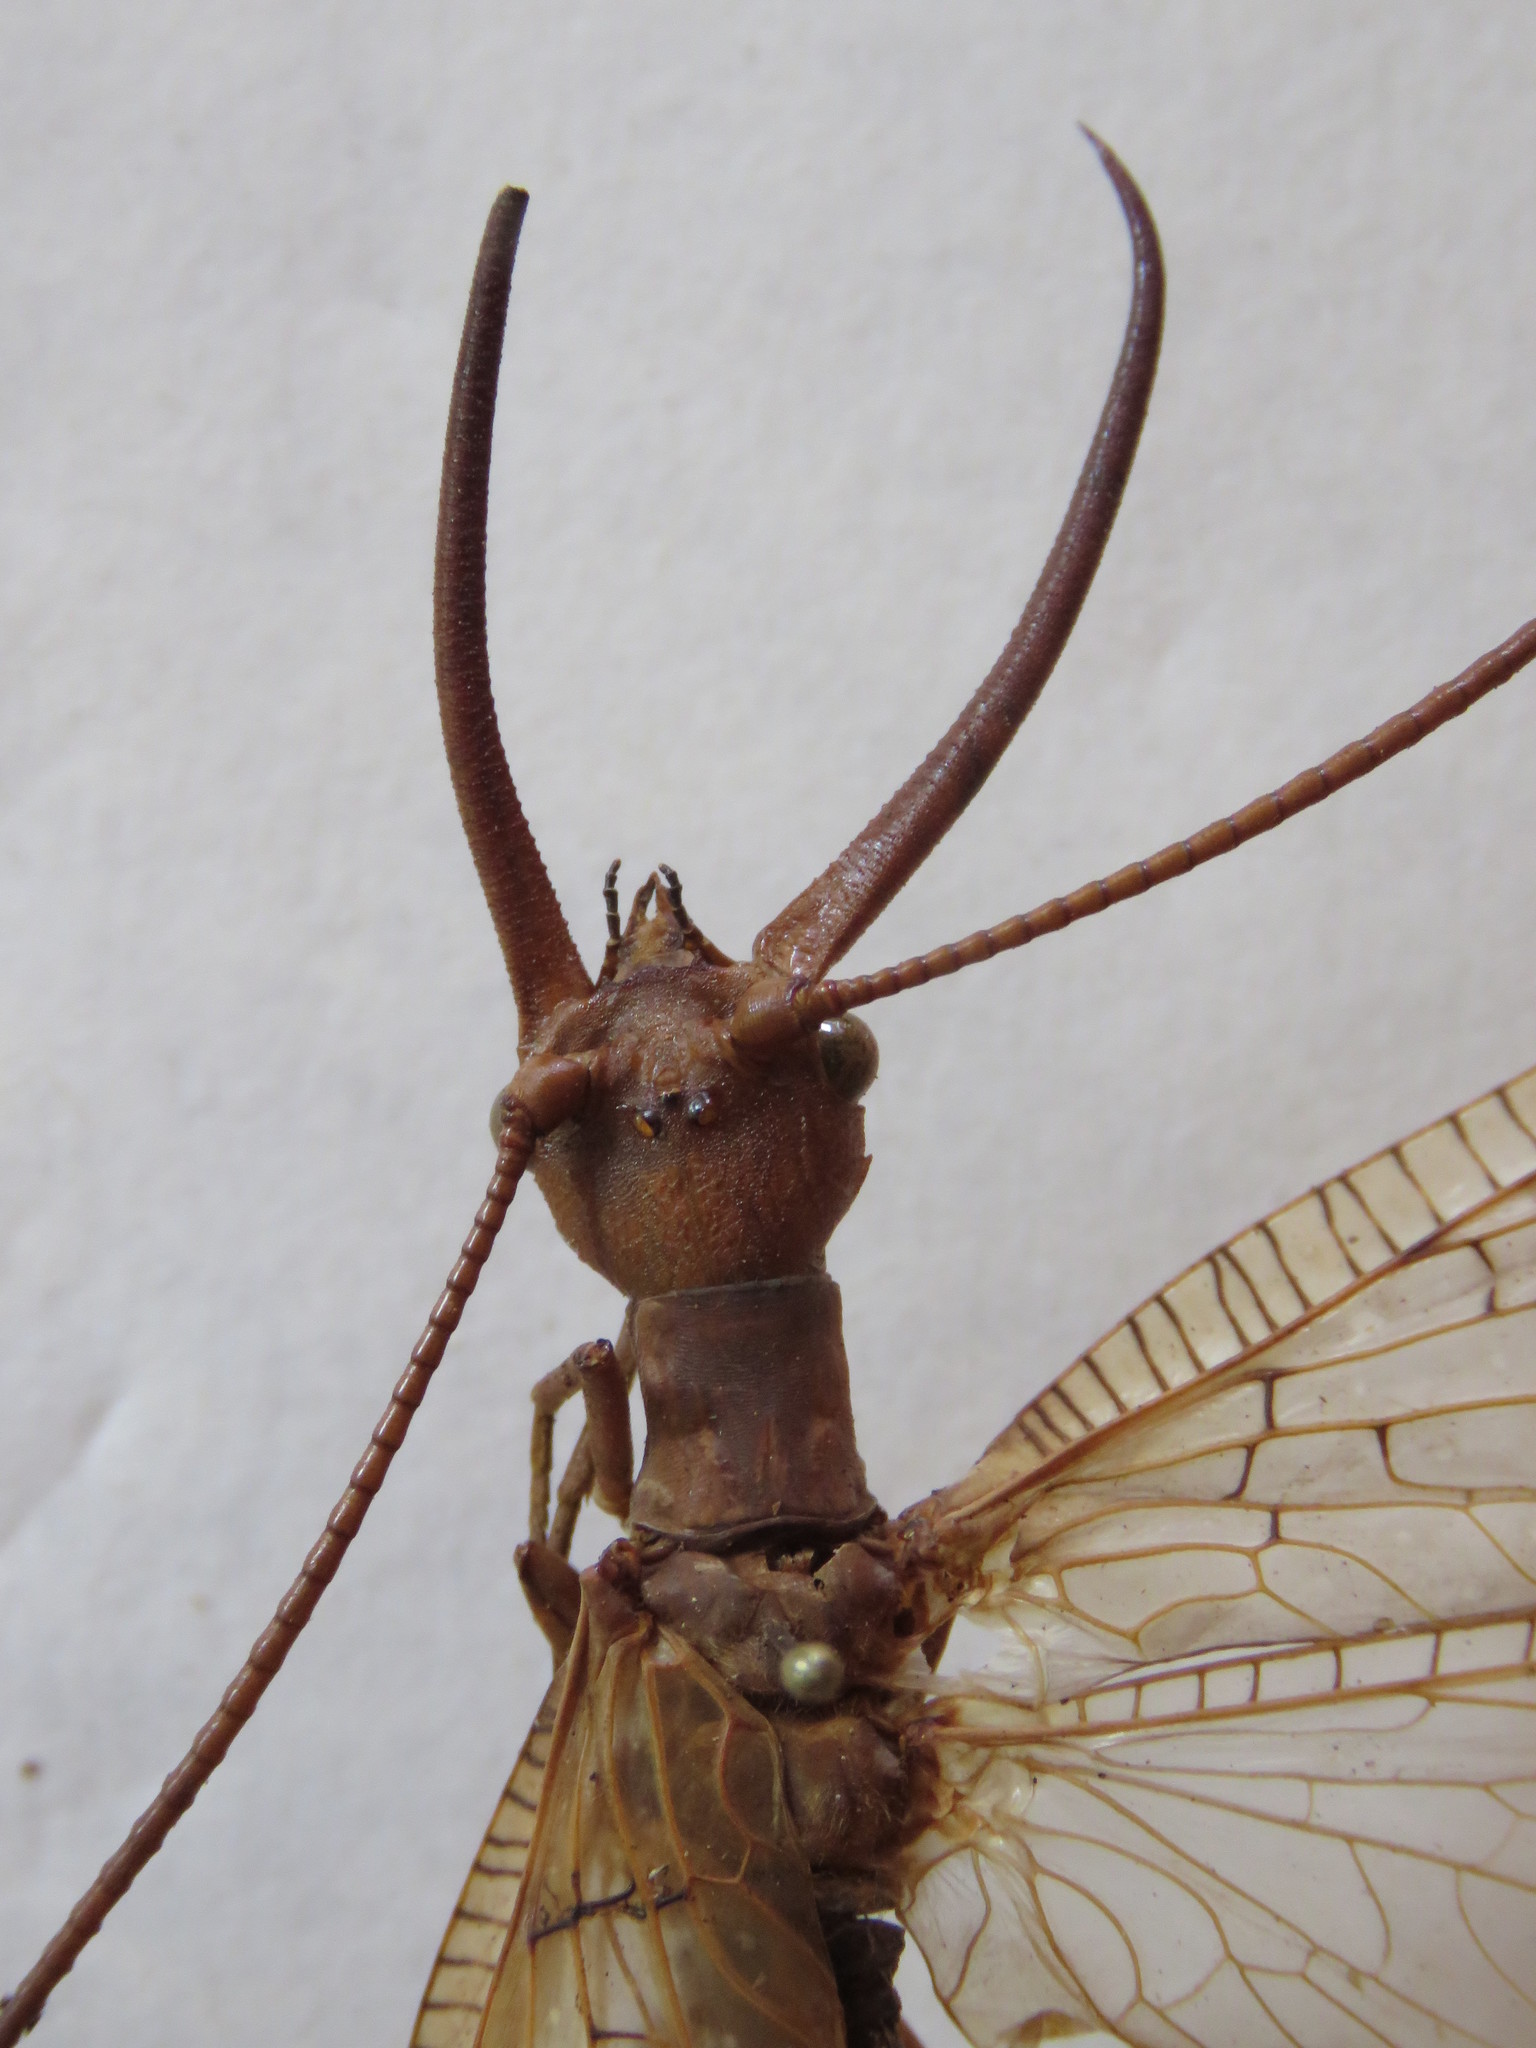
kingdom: Animalia
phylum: Arthropoda
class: Insecta
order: Megaloptera
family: Corydalidae
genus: Corydalus
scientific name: Corydalus luteus
